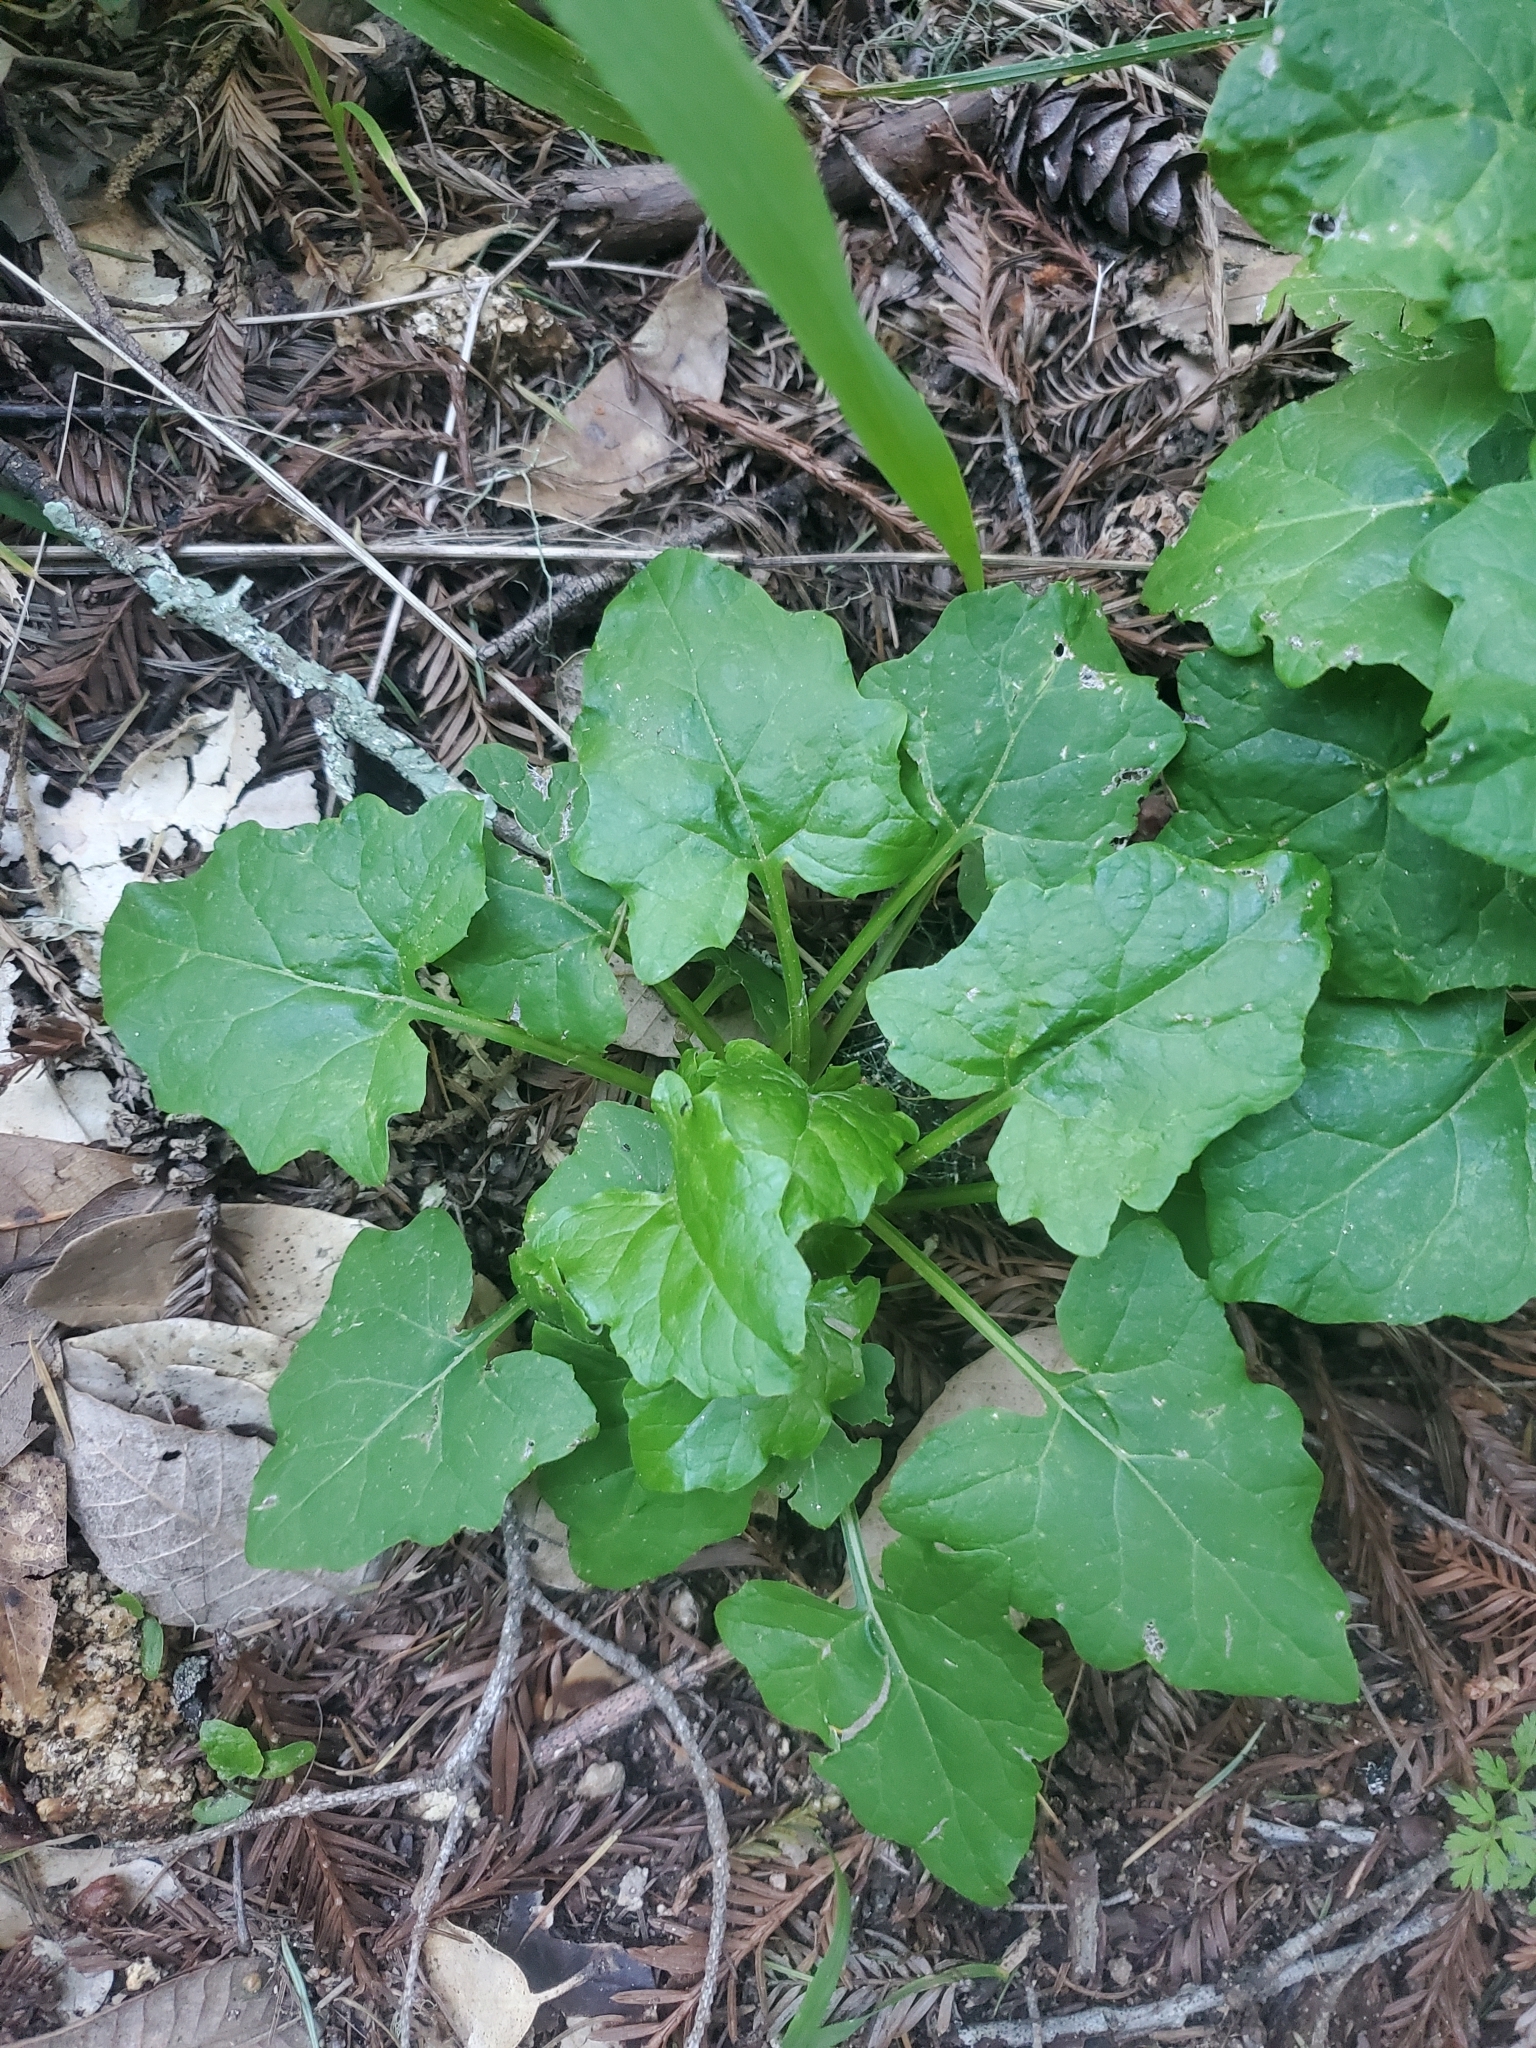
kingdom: Plantae
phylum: Tracheophyta
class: Magnoliopsida
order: Asterales
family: Asteraceae
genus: Adenocaulon
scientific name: Adenocaulon bicolor
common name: Trailplant
